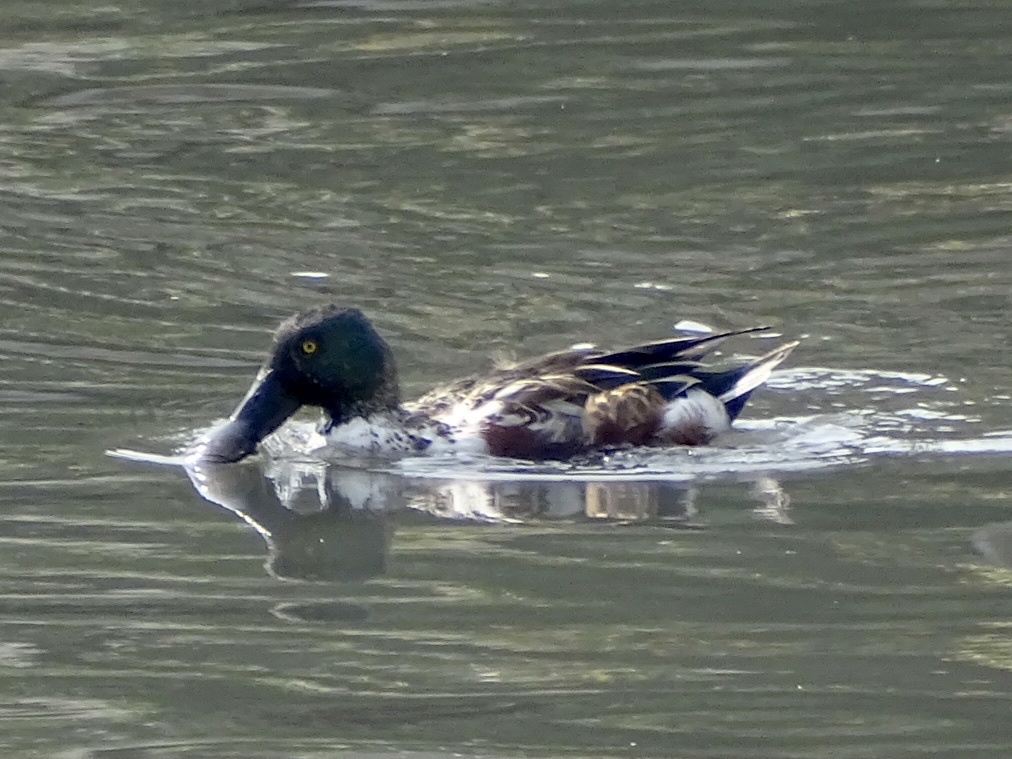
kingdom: Animalia
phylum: Chordata
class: Aves
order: Anseriformes
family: Anatidae
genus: Spatula
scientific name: Spatula clypeata
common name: Northern shoveler
